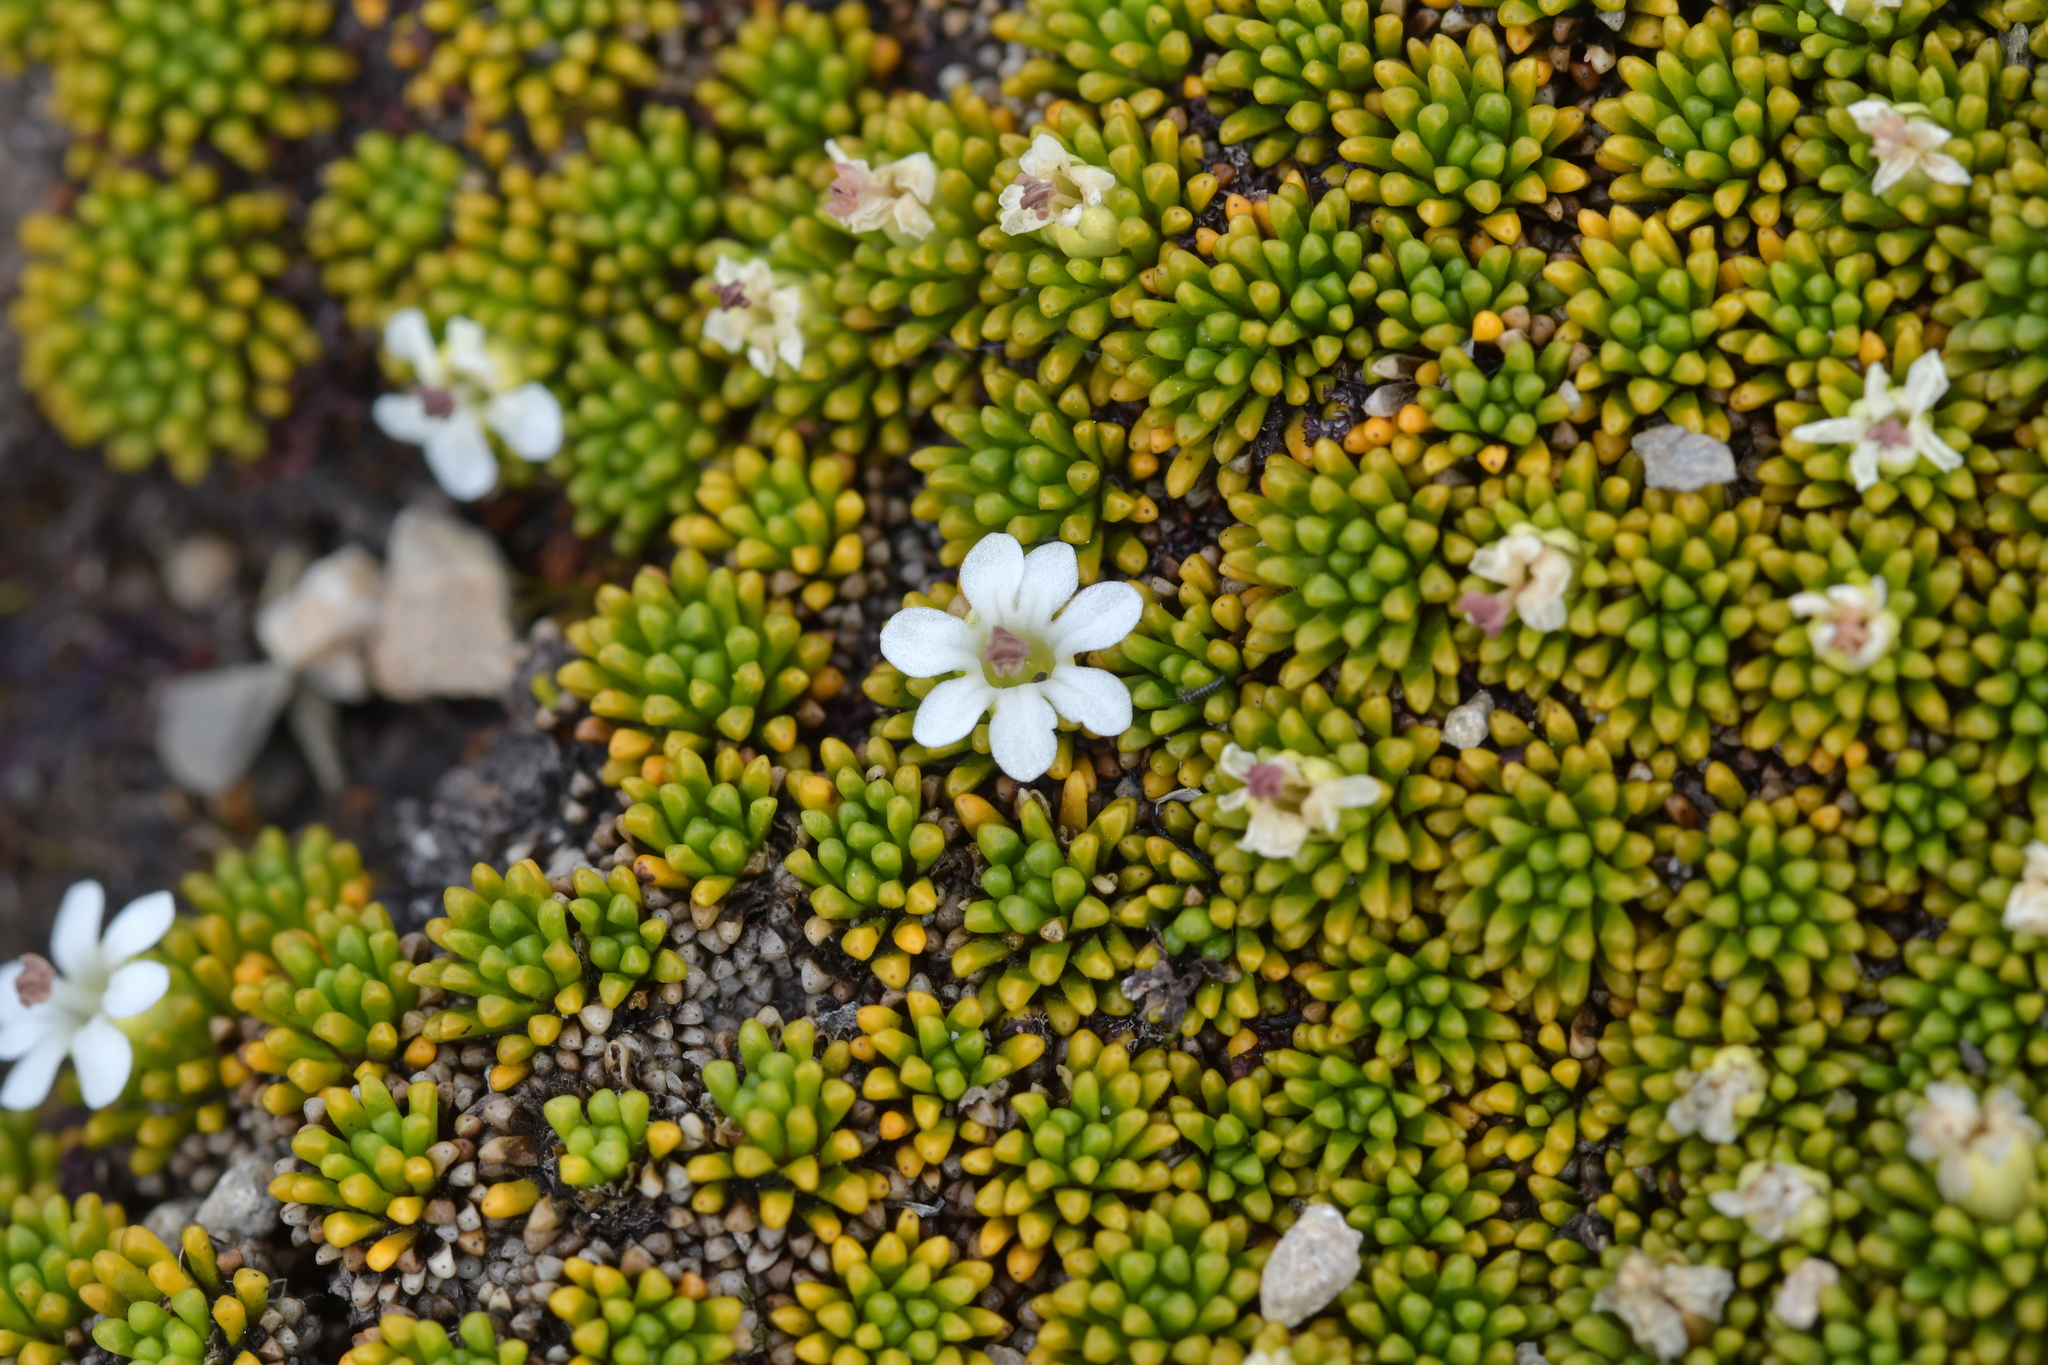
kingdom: Plantae
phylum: Tracheophyta
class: Magnoliopsida
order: Asterales
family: Stylidiaceae
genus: Phyllachne
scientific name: Phyllachne colensoi
